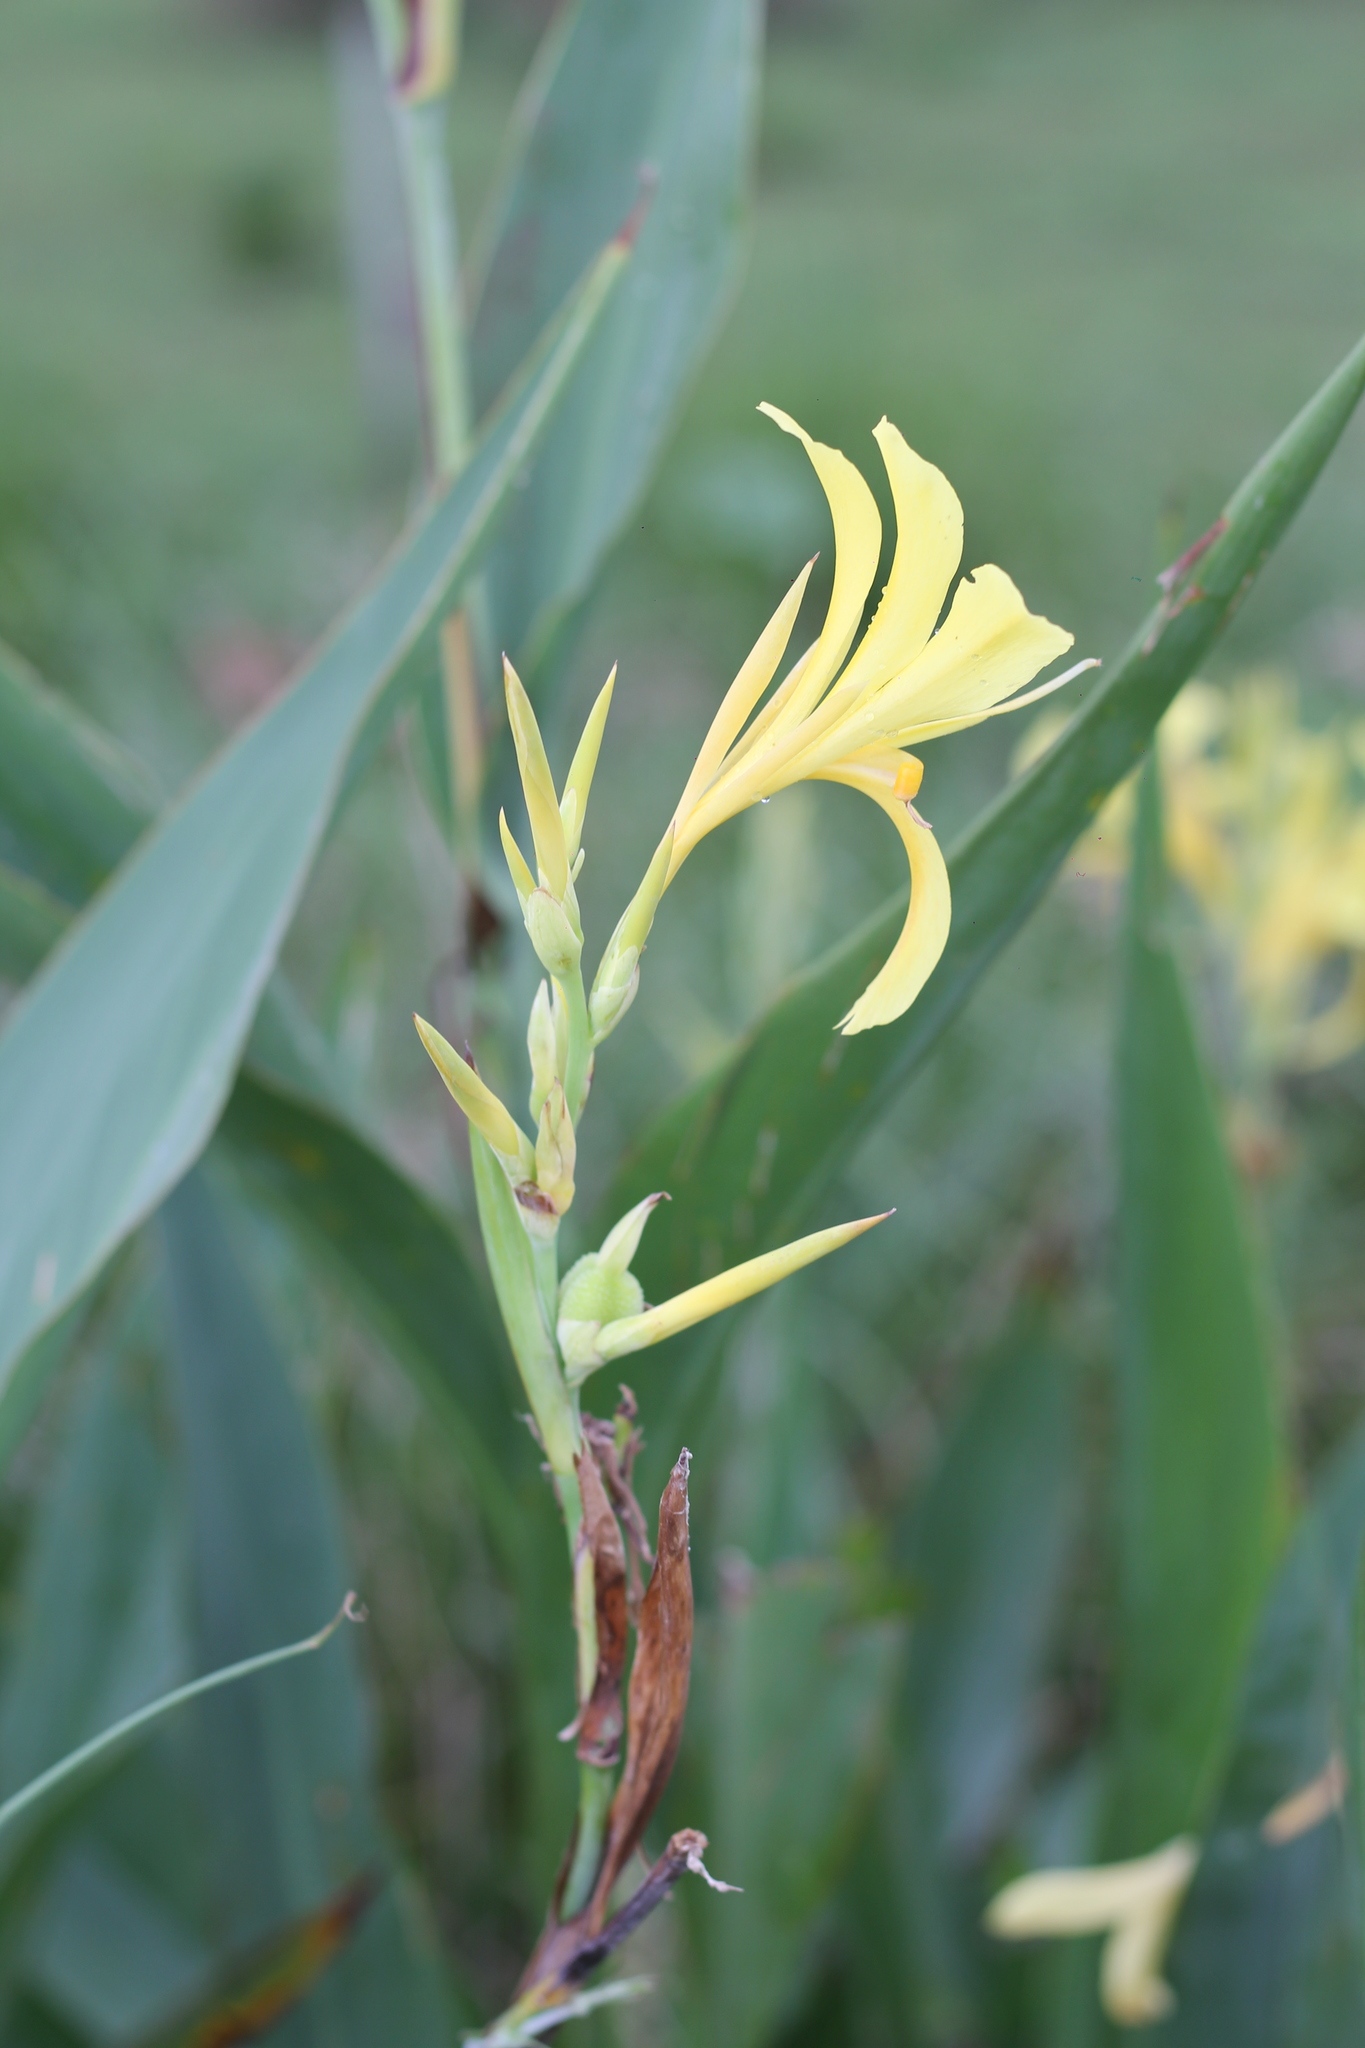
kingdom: Plantae
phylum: Tracheophyta
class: Liliopsida
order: Zingiberales
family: Cannaceae
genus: Canna
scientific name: Canna glauca
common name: Louisiana canna
